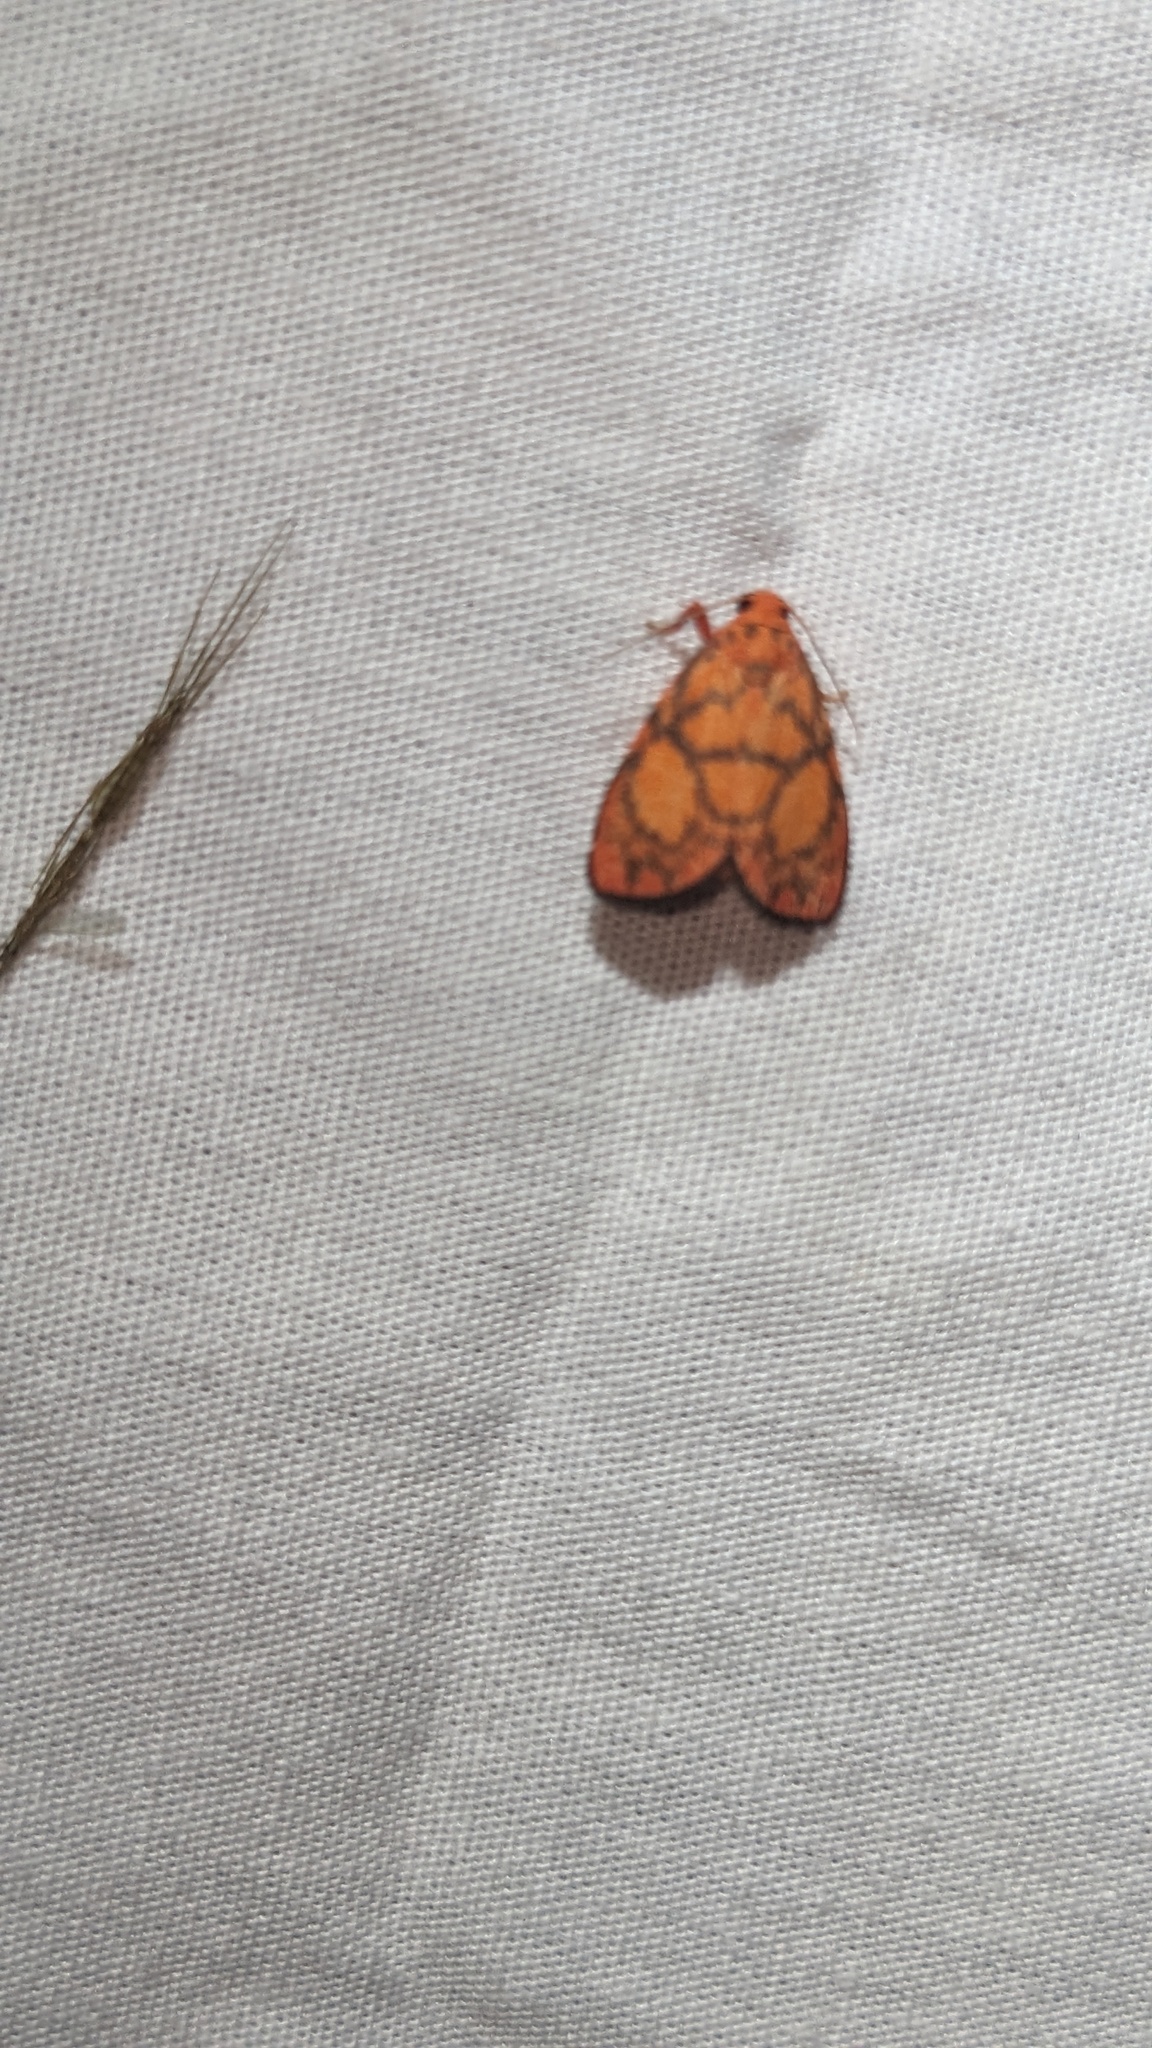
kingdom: Animalia
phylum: Arthropoda
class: Insecta
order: Lepidoptera
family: Erebidae
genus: Integrivalvia
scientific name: Integrivalvia rutila
